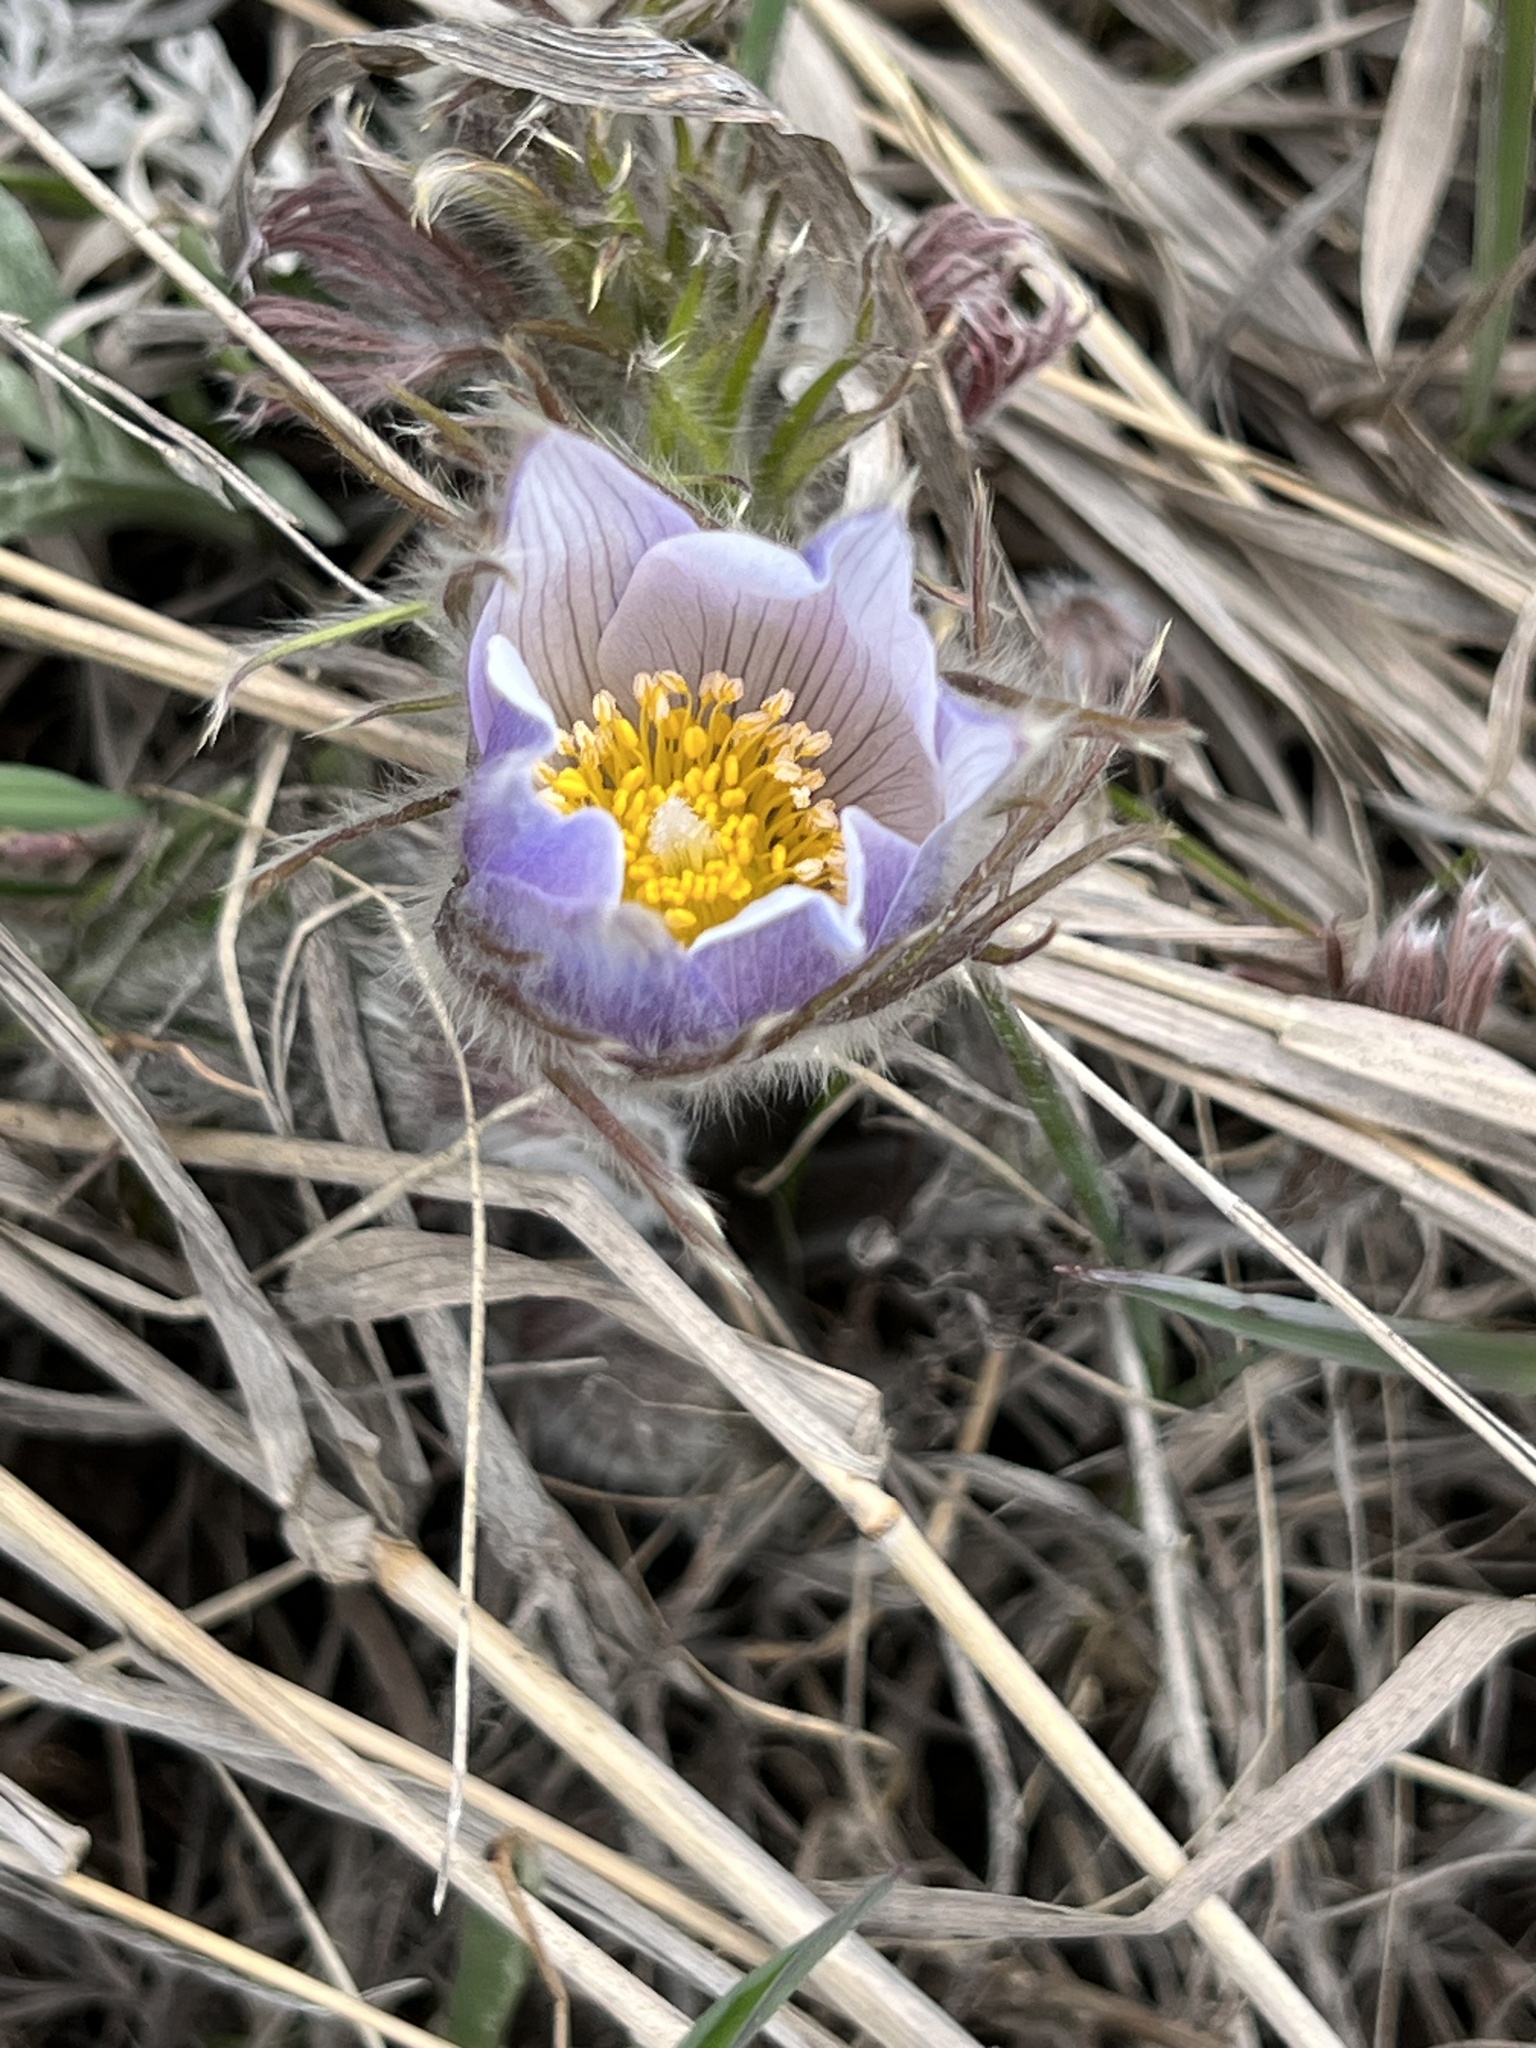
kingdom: Plantae
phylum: Tracheophyta
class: Magnoliopsida
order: Ranunculales
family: Ranunculaceae
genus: Pulsatilla
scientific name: Pulsatilla nuttalliana
